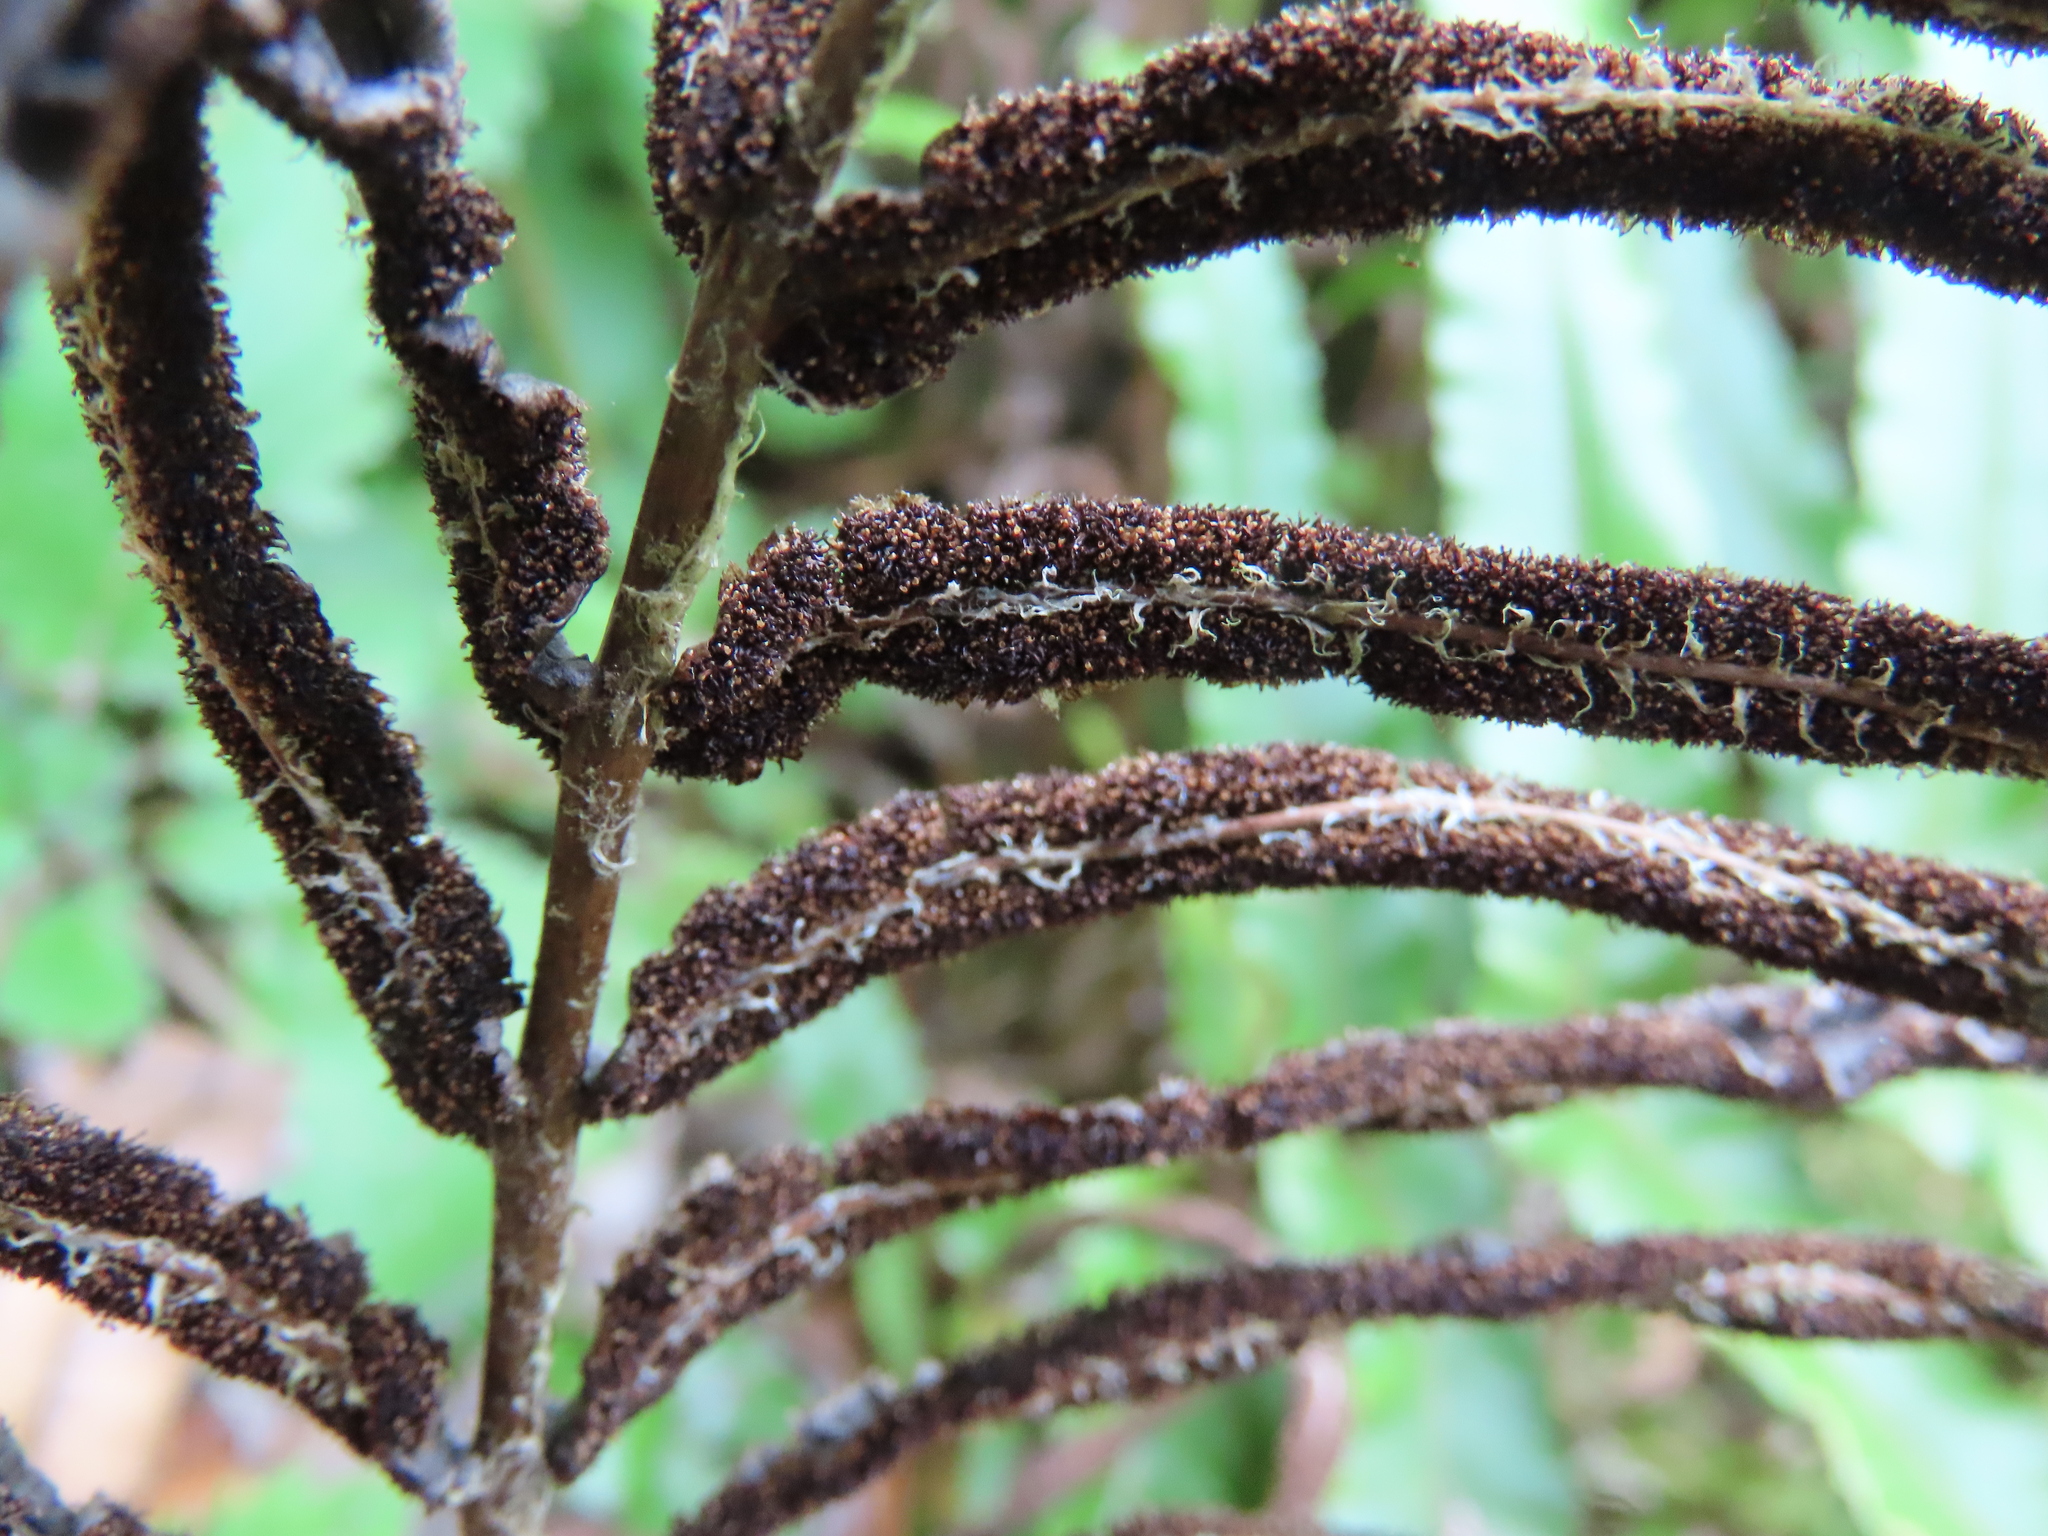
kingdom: Plantae
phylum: Tracheophyta
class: Polypodiopsida
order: Polypodiales
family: Blechnaceae
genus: Parablechnum
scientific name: Parablechnum novae-zelandiae
